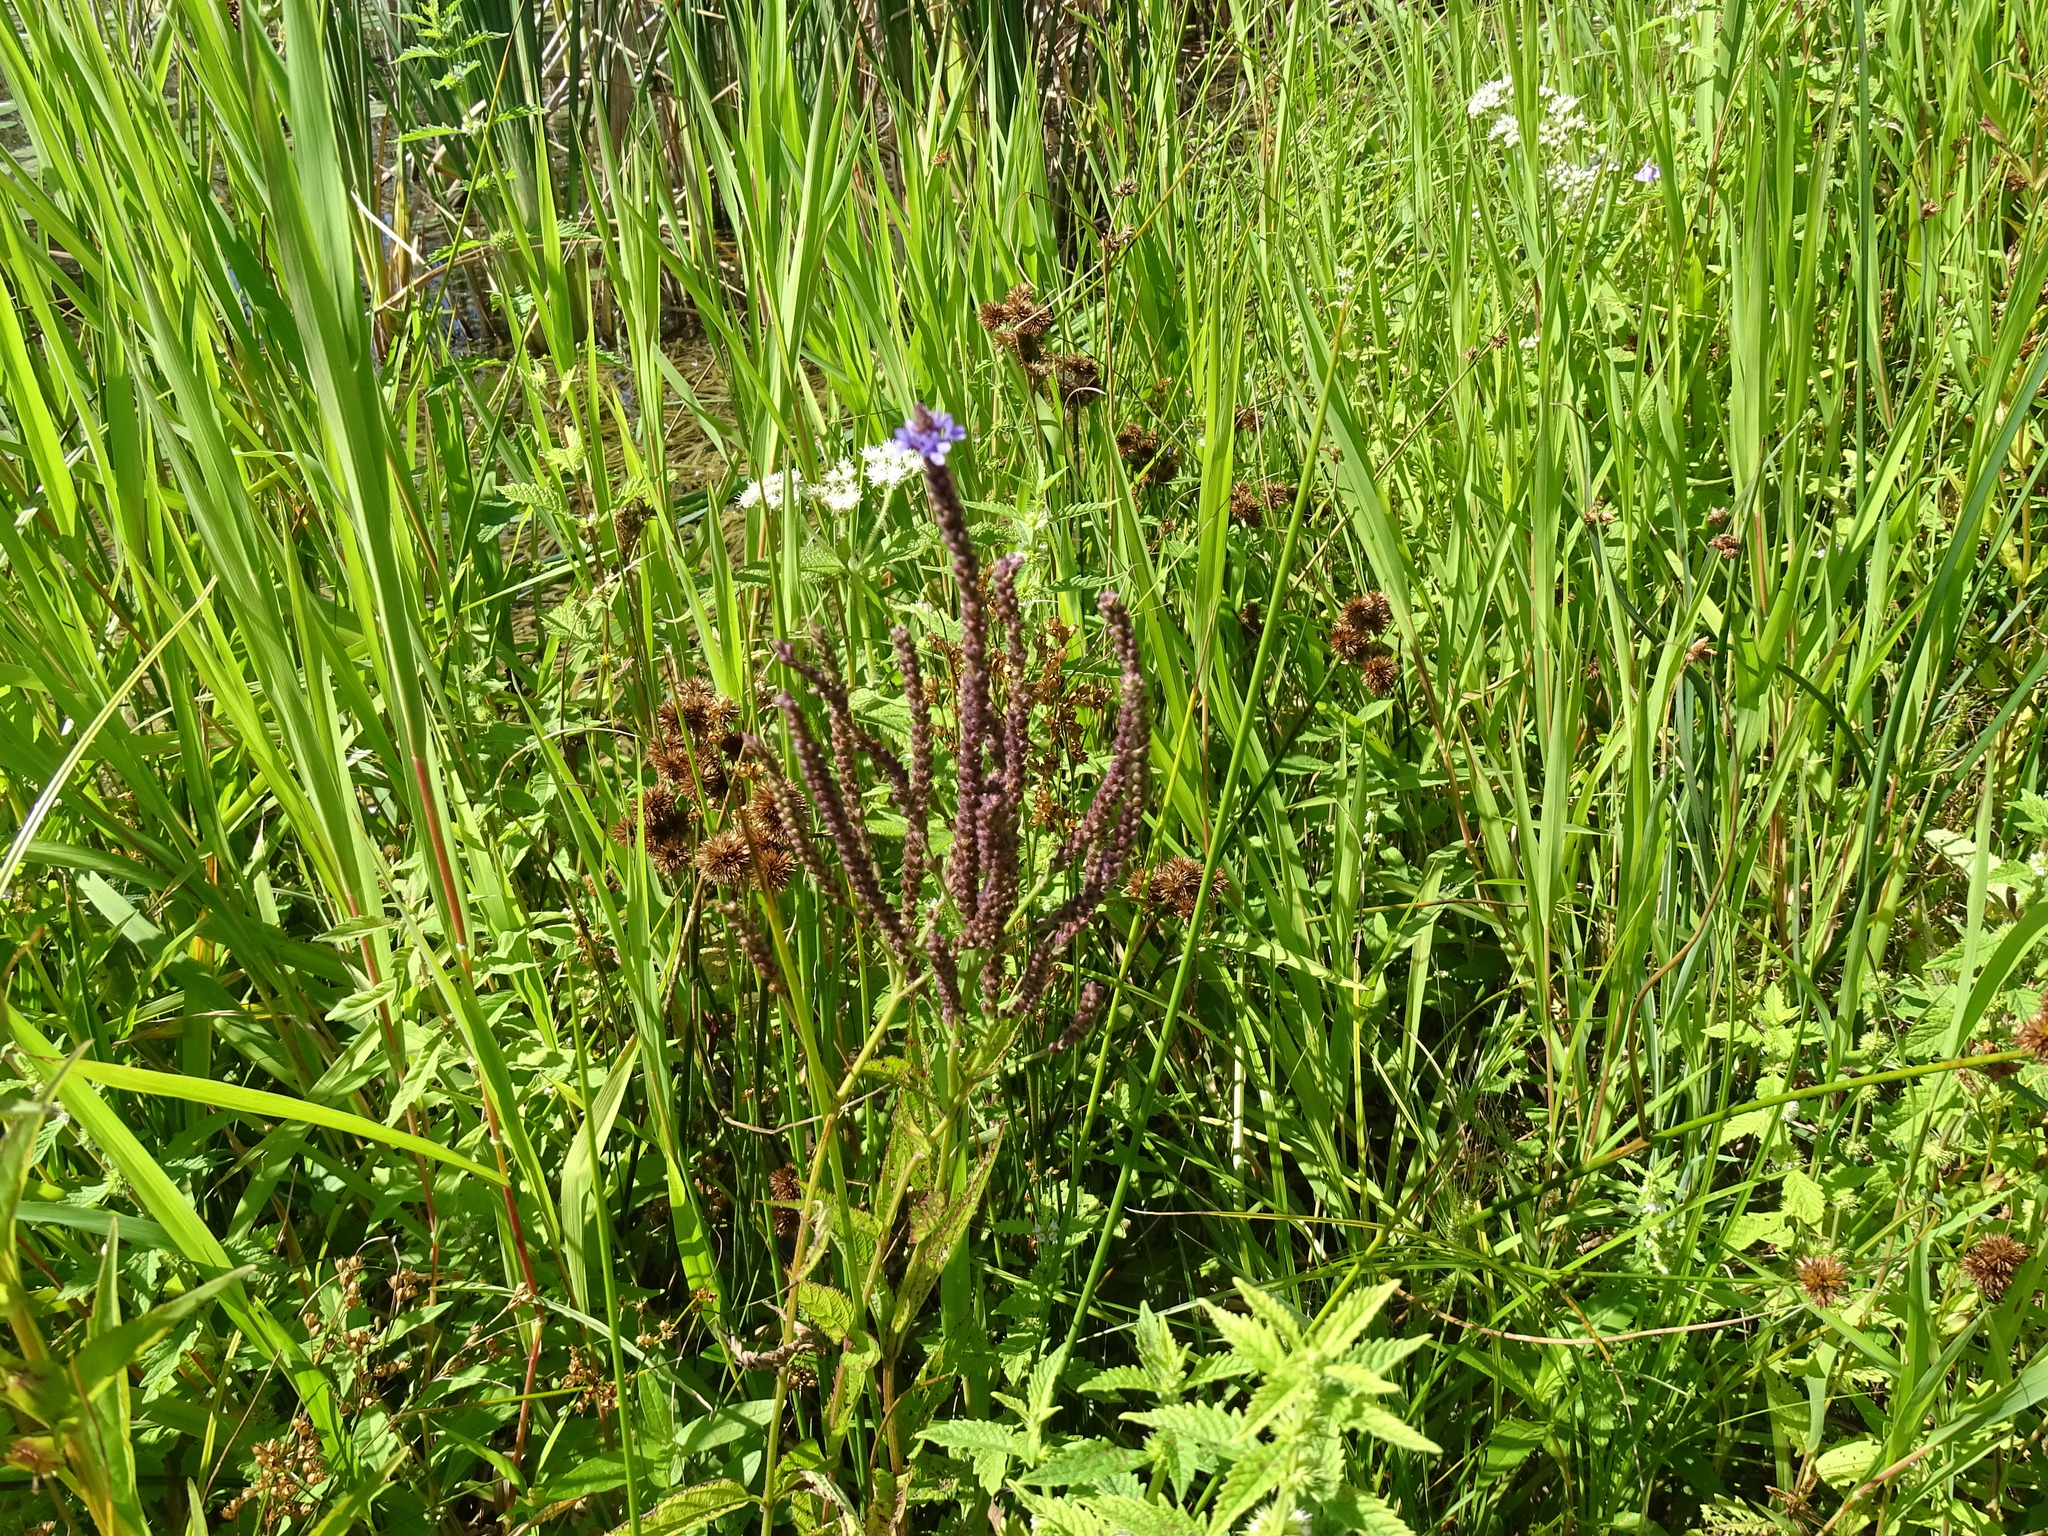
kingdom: Plantae
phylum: Tracheophyta
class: Magnoliopsida
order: Lamiales
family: Verbenaceae
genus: Verbena
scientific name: Verbena hastata
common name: American blue vervain
